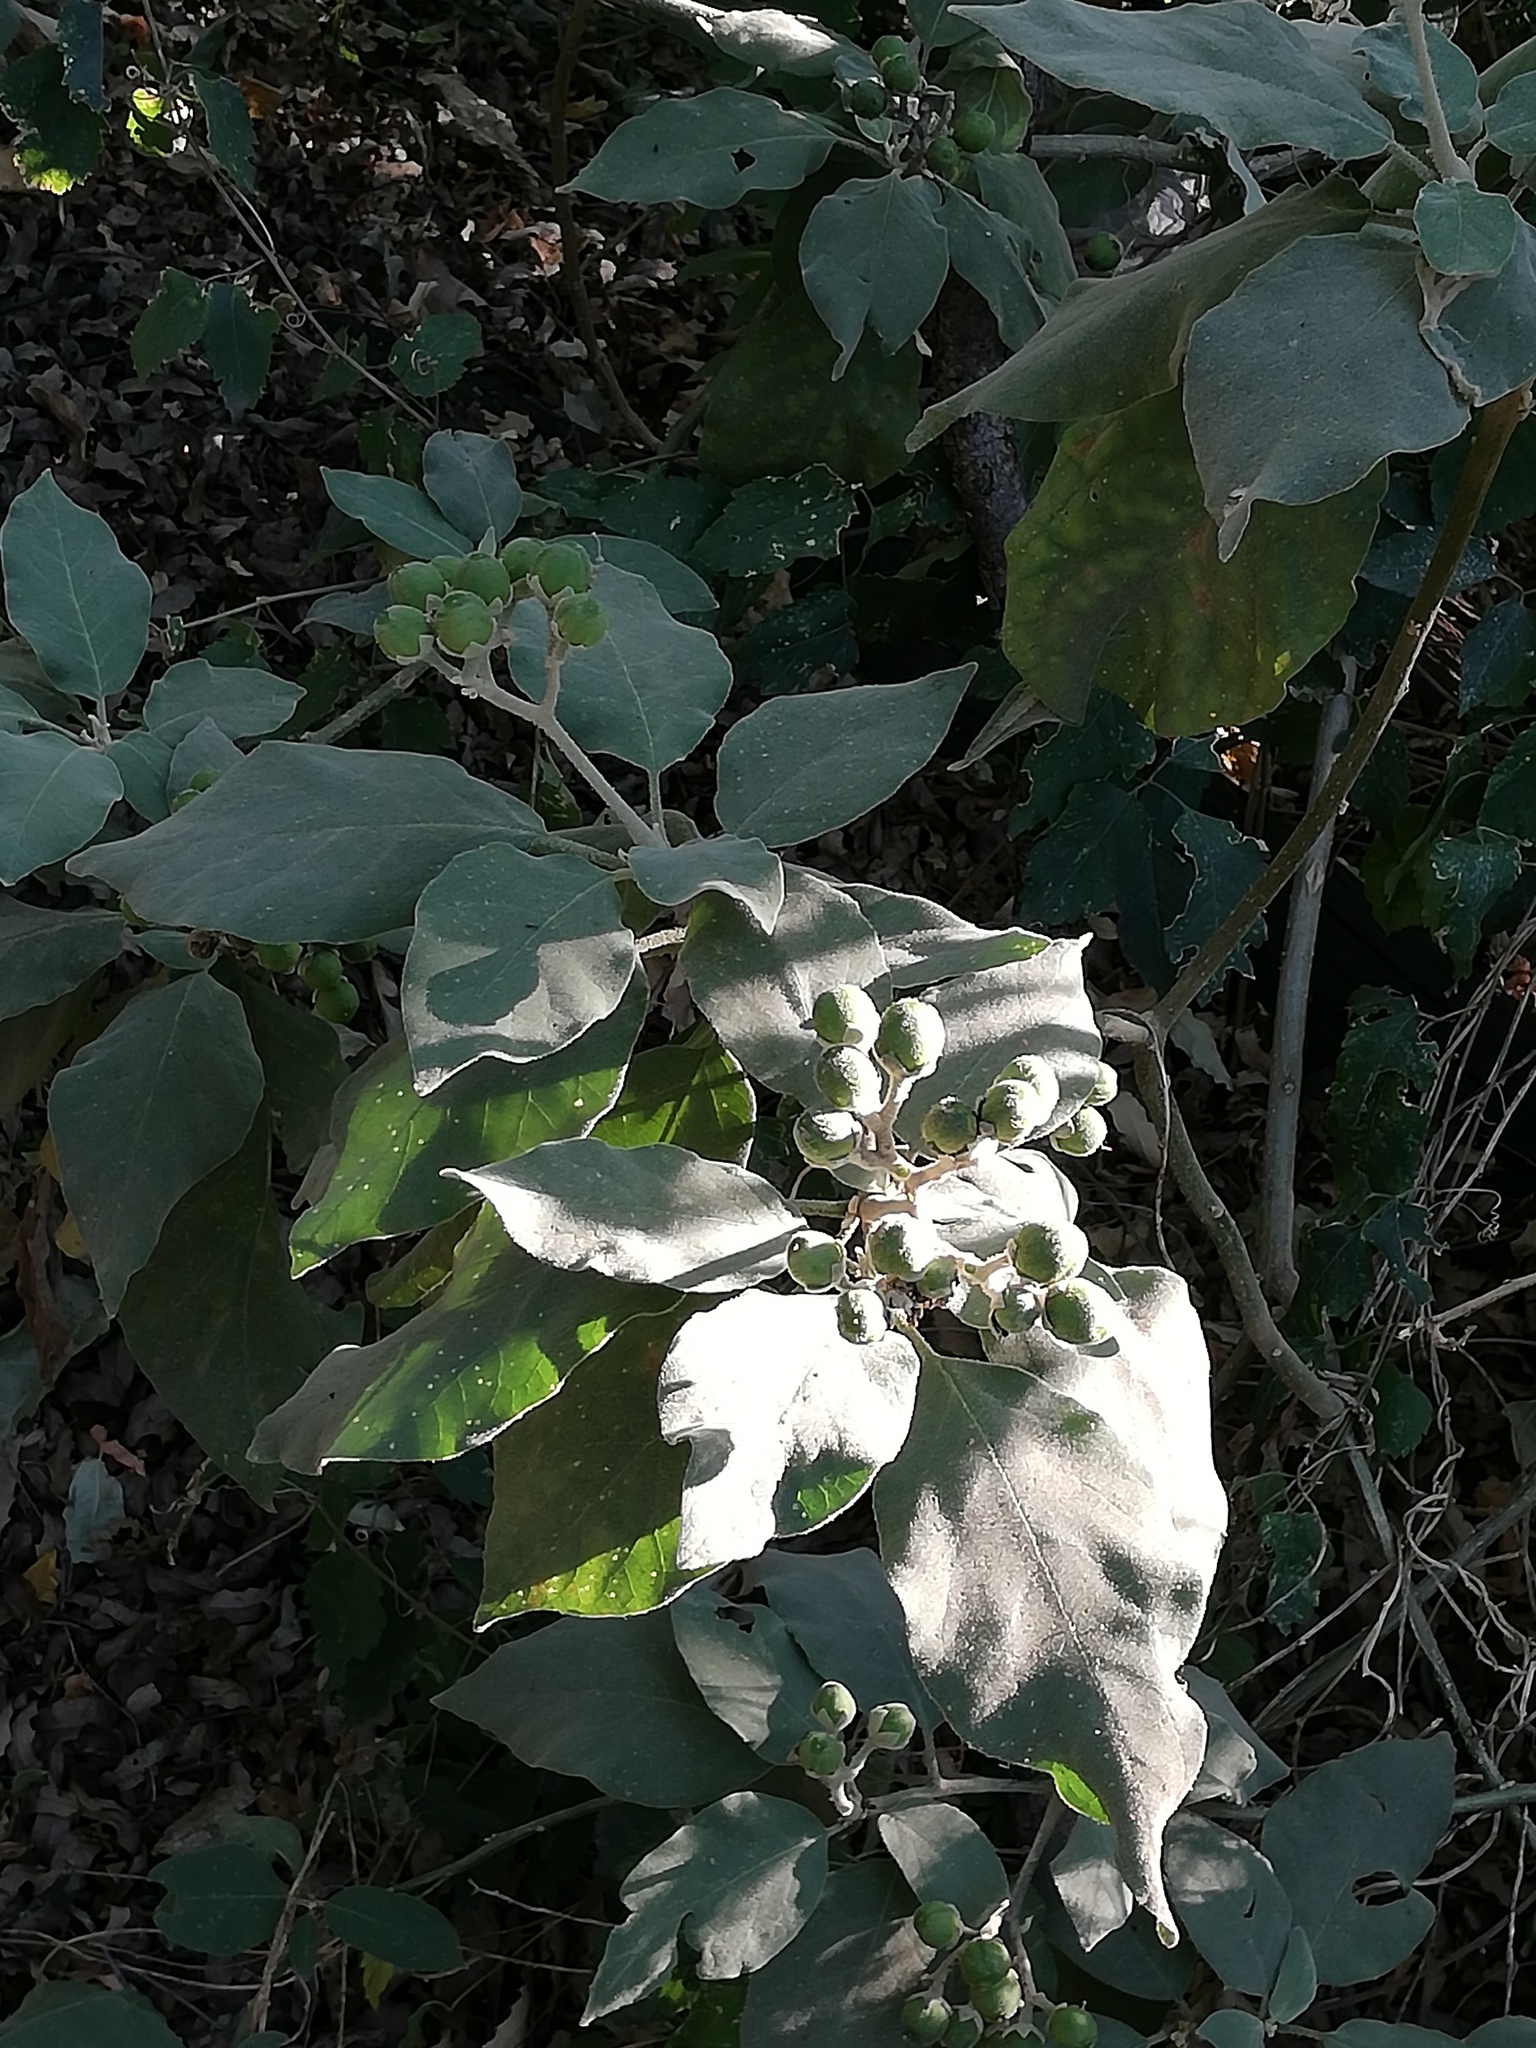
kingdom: Plantae
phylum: Tracheophyta
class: Magnoliopsida
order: Solanales
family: Solanaceae
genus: Solanum
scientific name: Solanum erianthum
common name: Tobacco-tree
